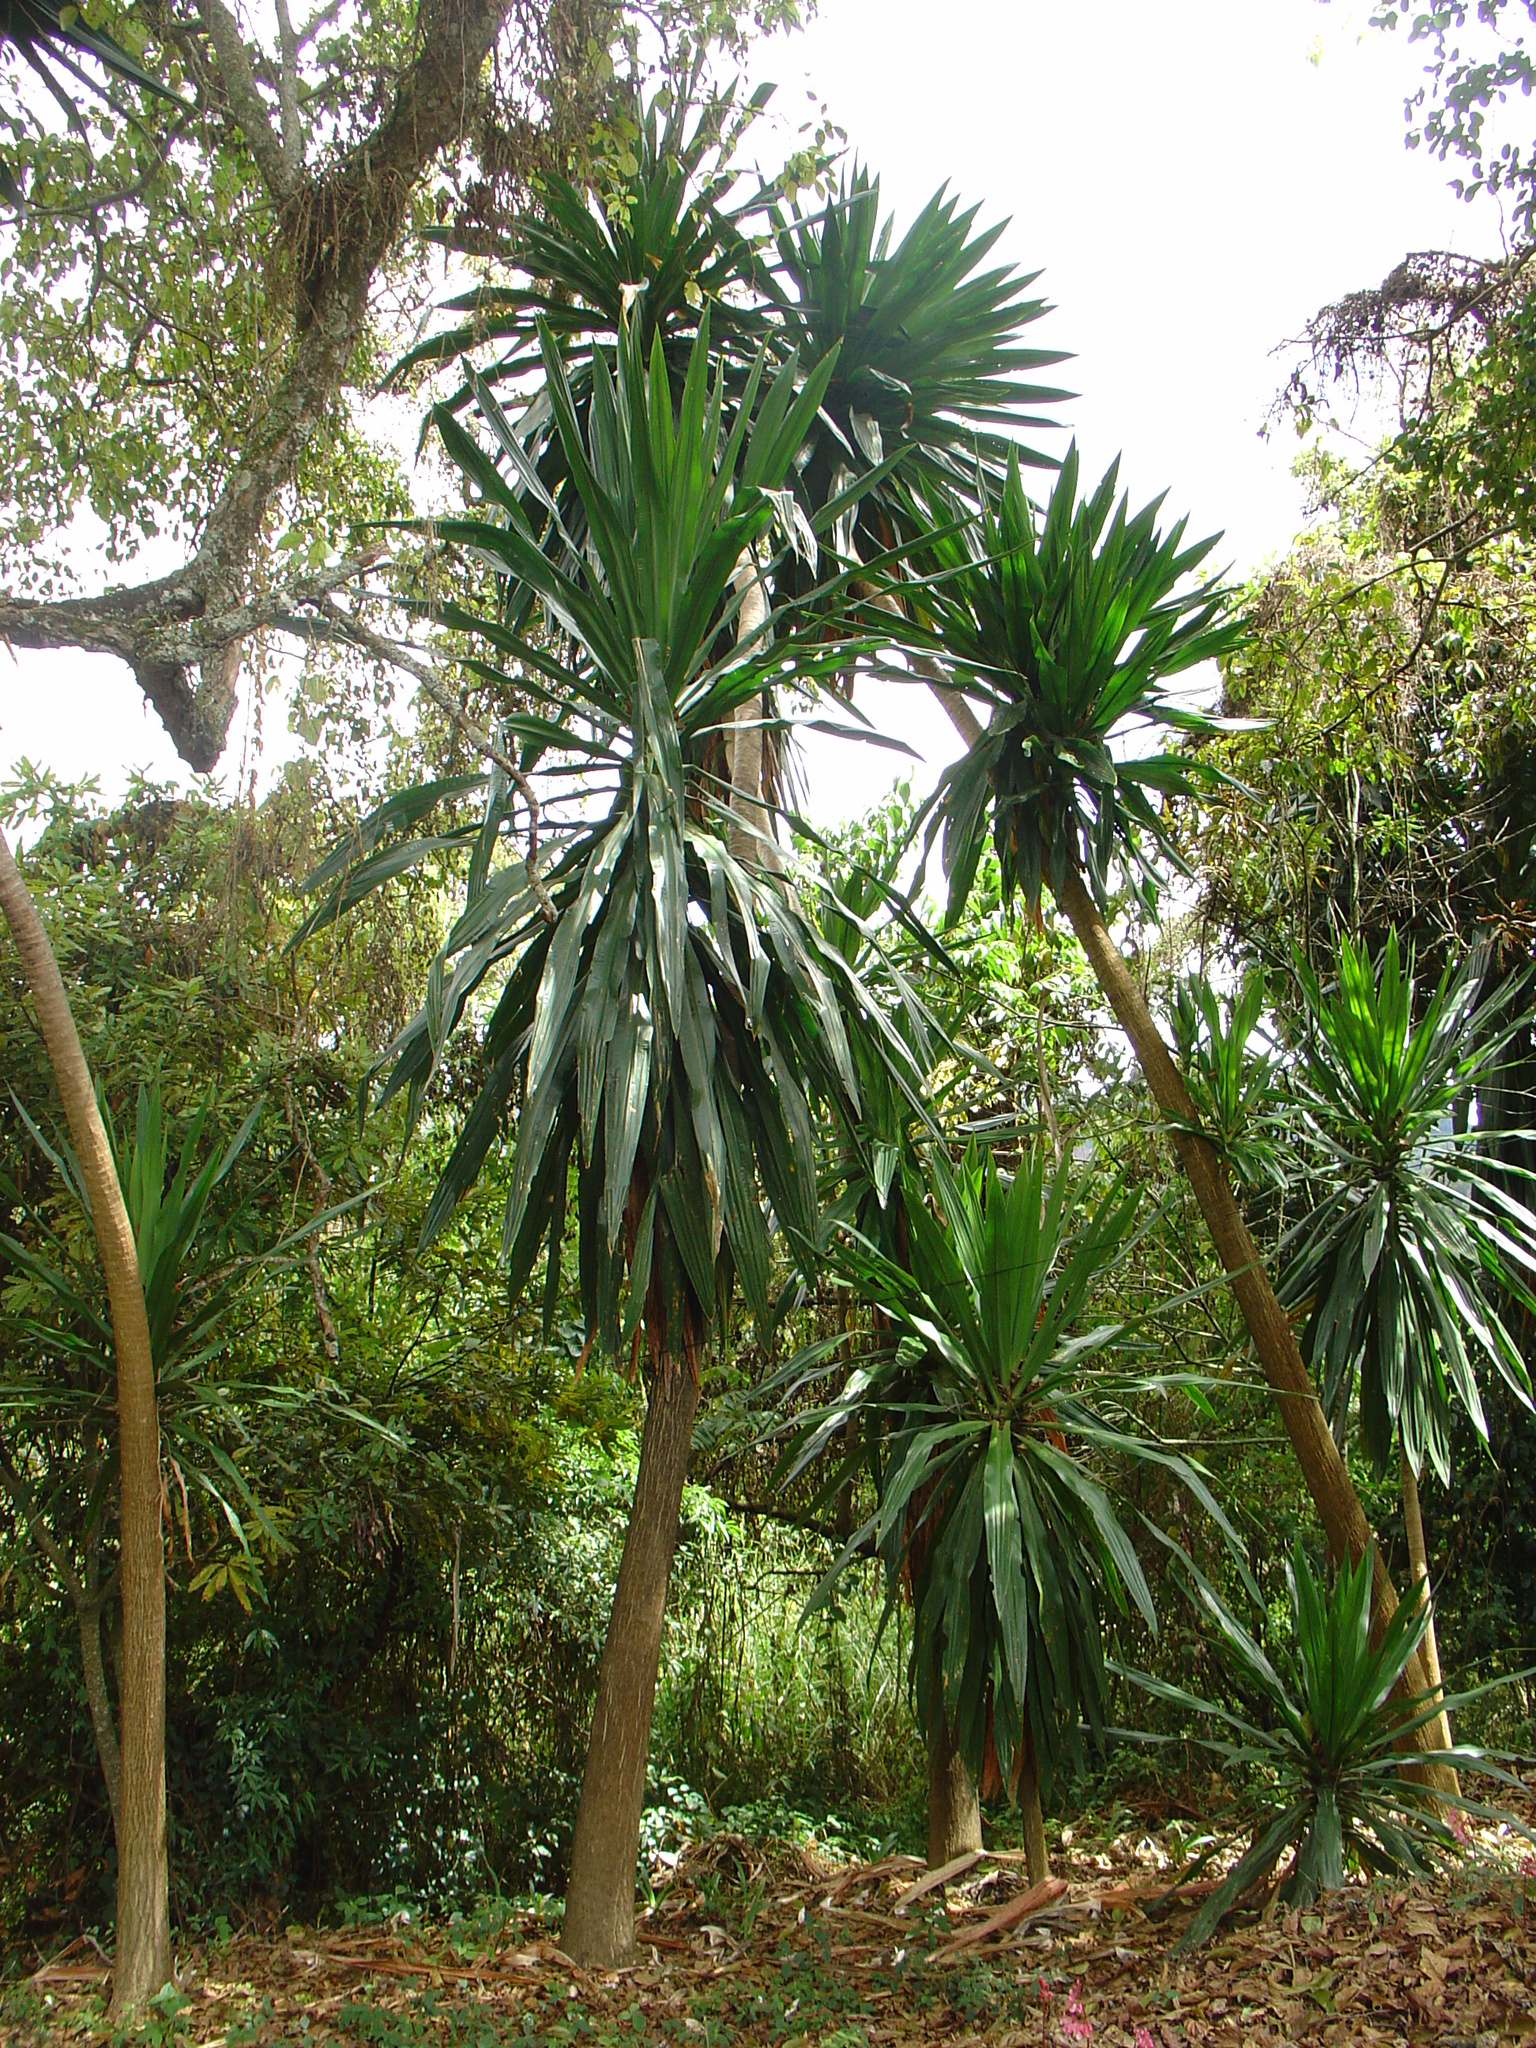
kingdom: Plantae
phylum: Tracheophyta
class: Liliopsida
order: Asparagales
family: Asparagaceae
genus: Dracaena
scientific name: Dracaena steudneri
